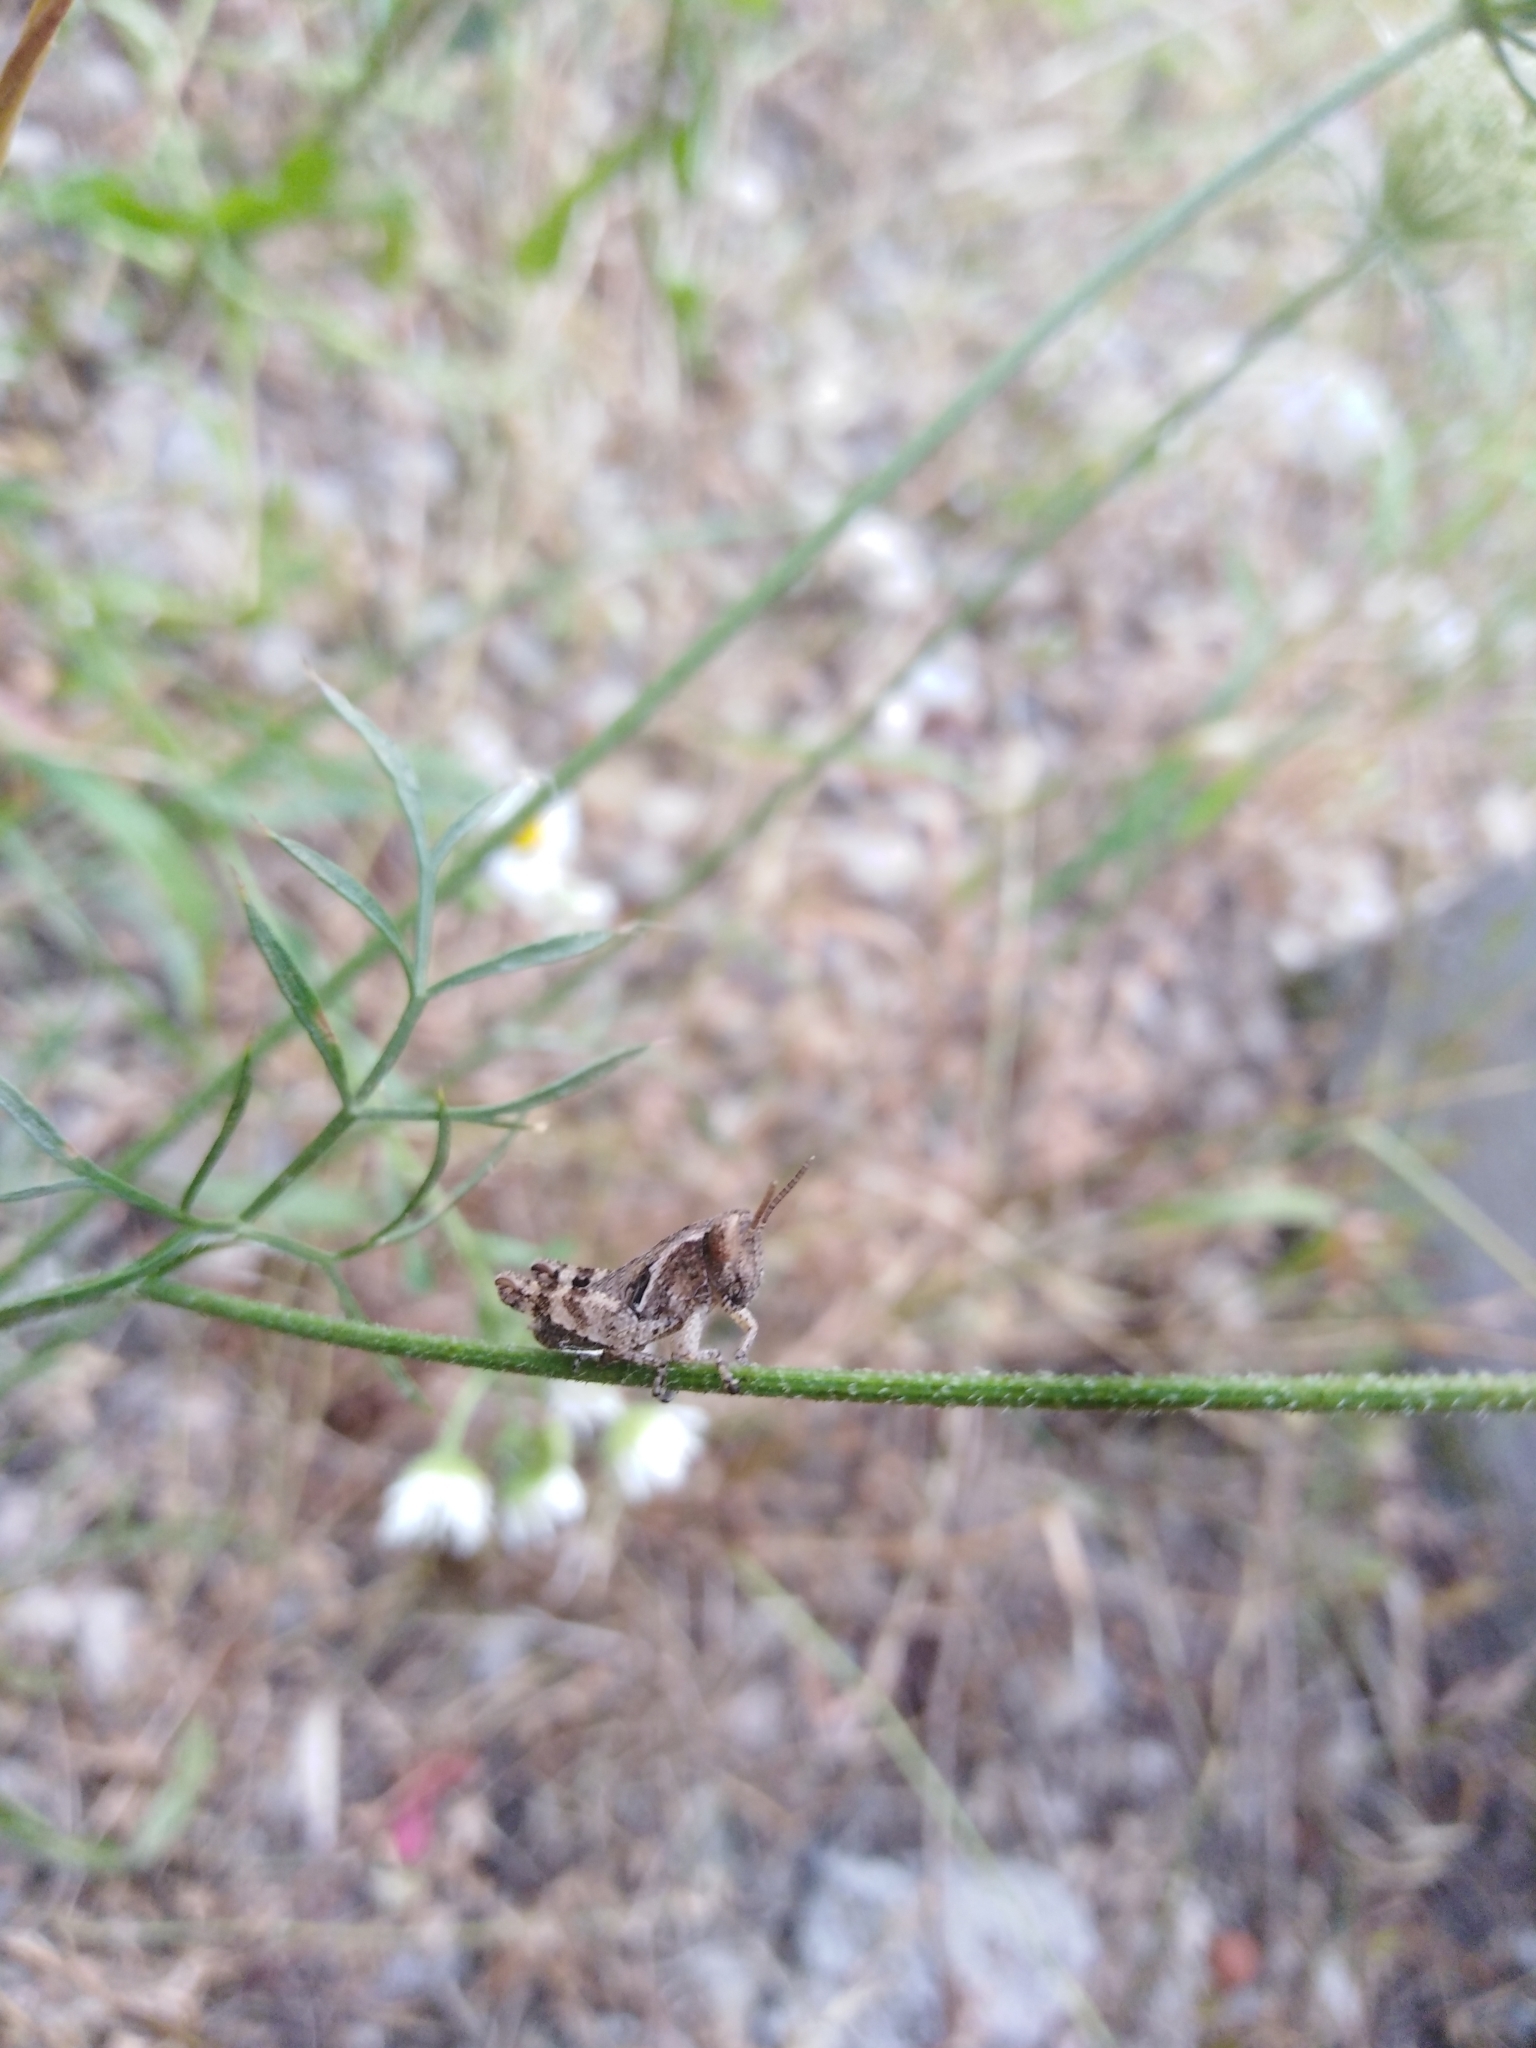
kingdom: Animalia
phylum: Arthropoda
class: Insecta
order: Orthoptera
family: Acrididae
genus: Pezotettix
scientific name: Pezotettix giornae
